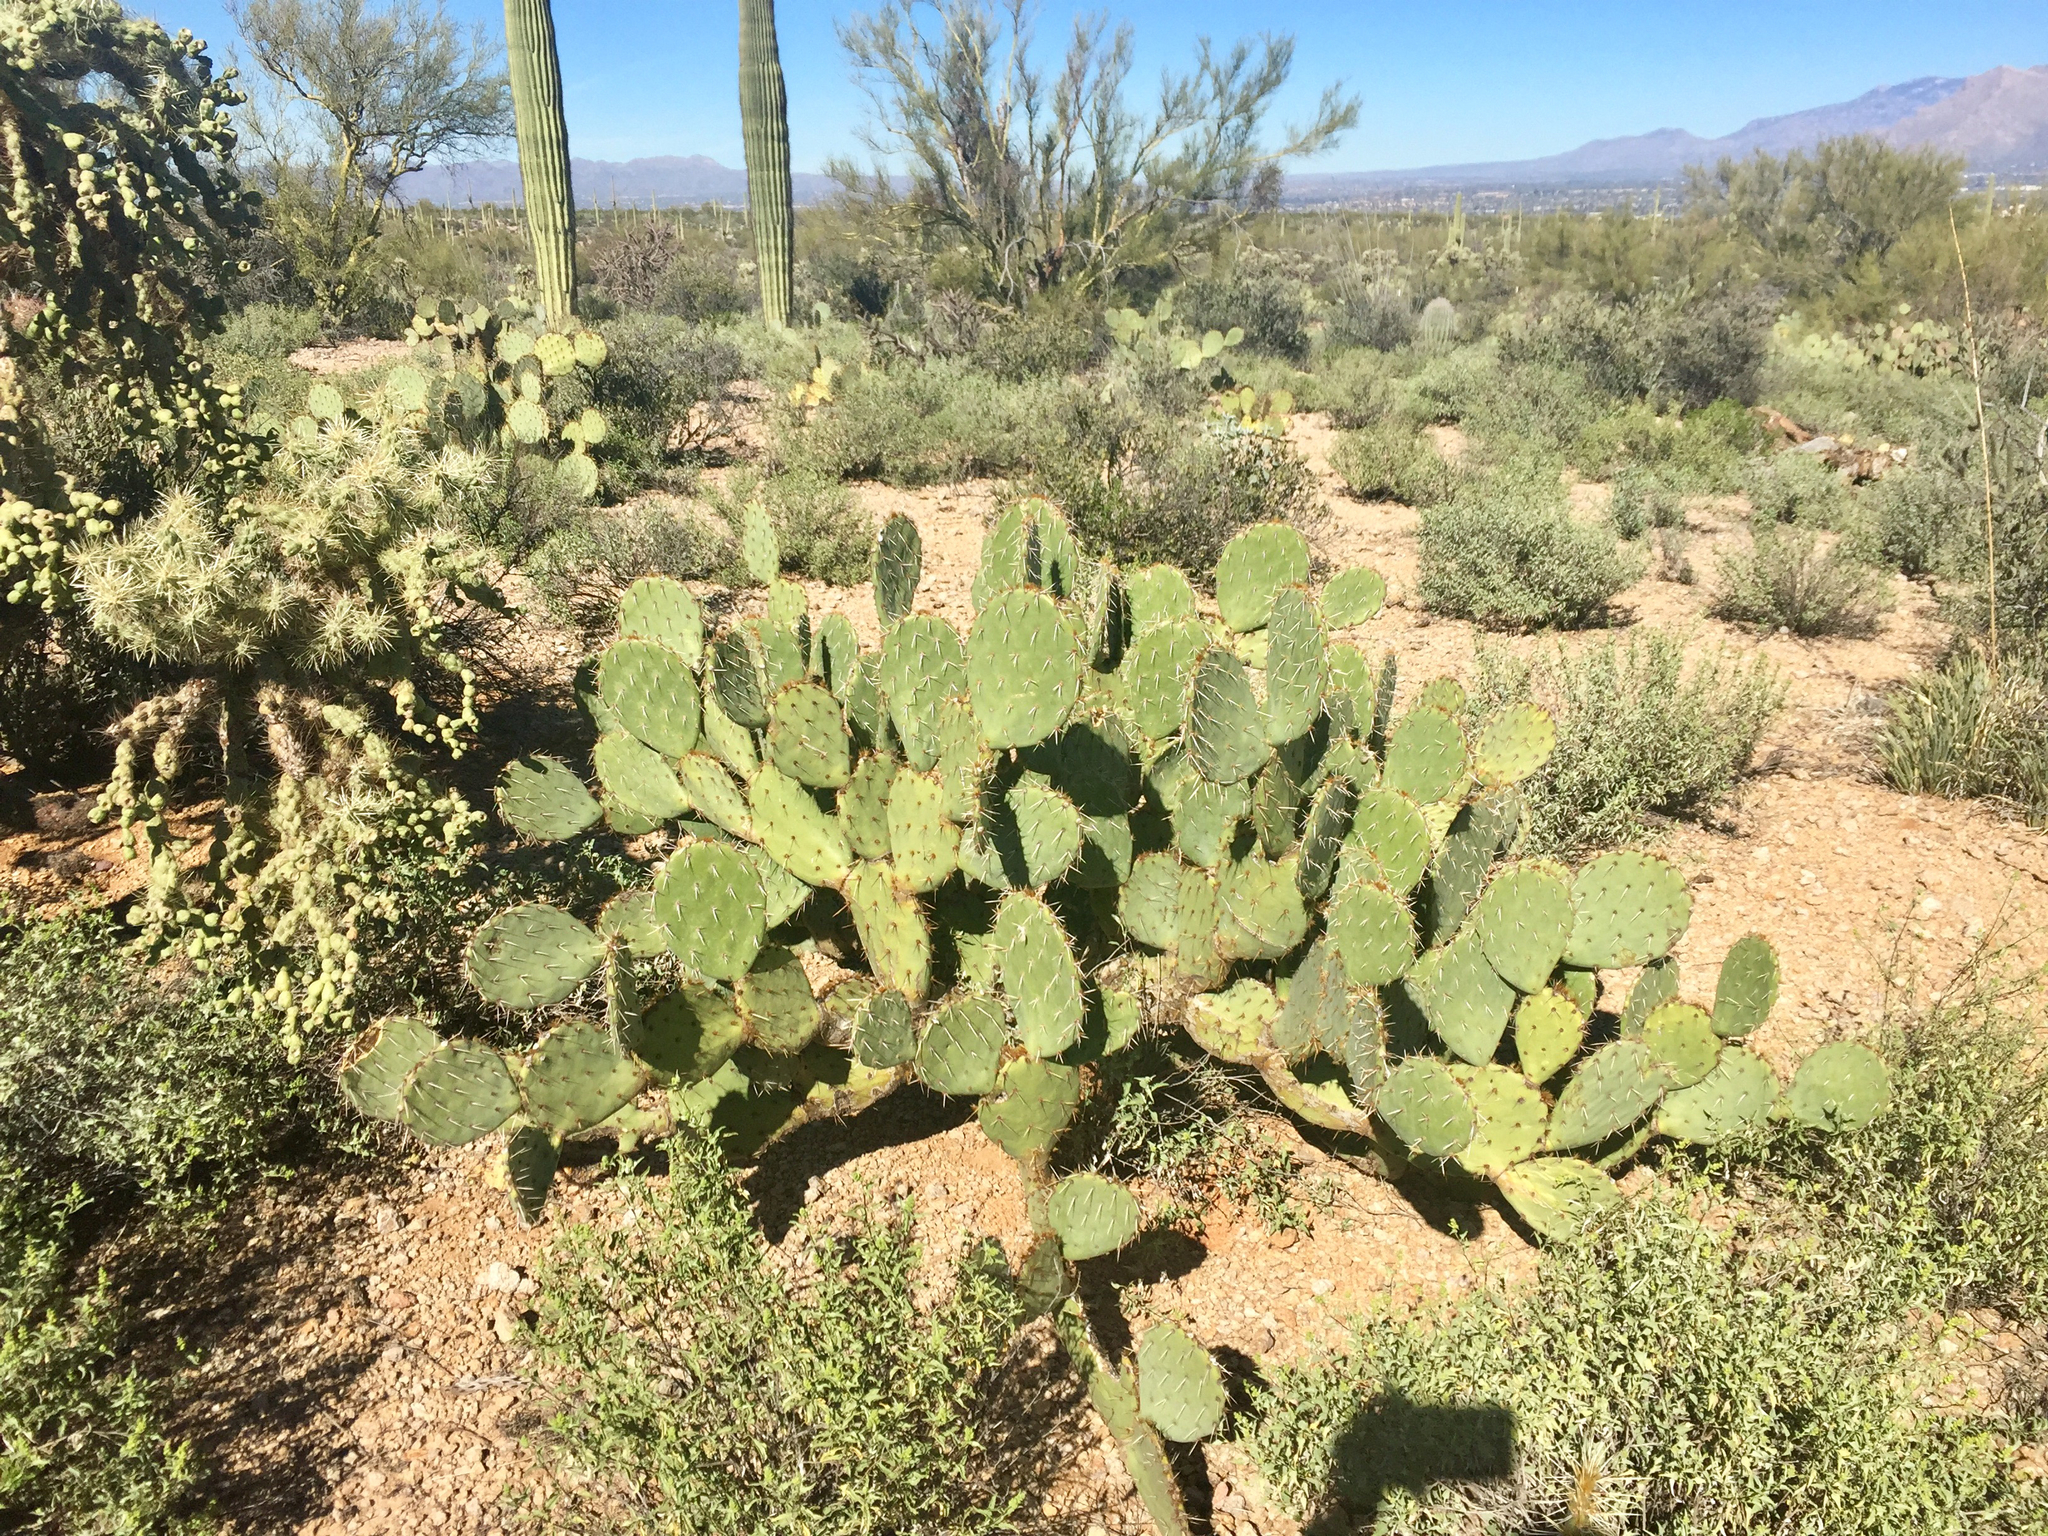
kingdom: Plantae
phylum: Tracheophyta
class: Magnoliopsida
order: Caryophyllales
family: Cactaceae
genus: Opuntia
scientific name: Opuntia engelmannii
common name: Cactus-apple
